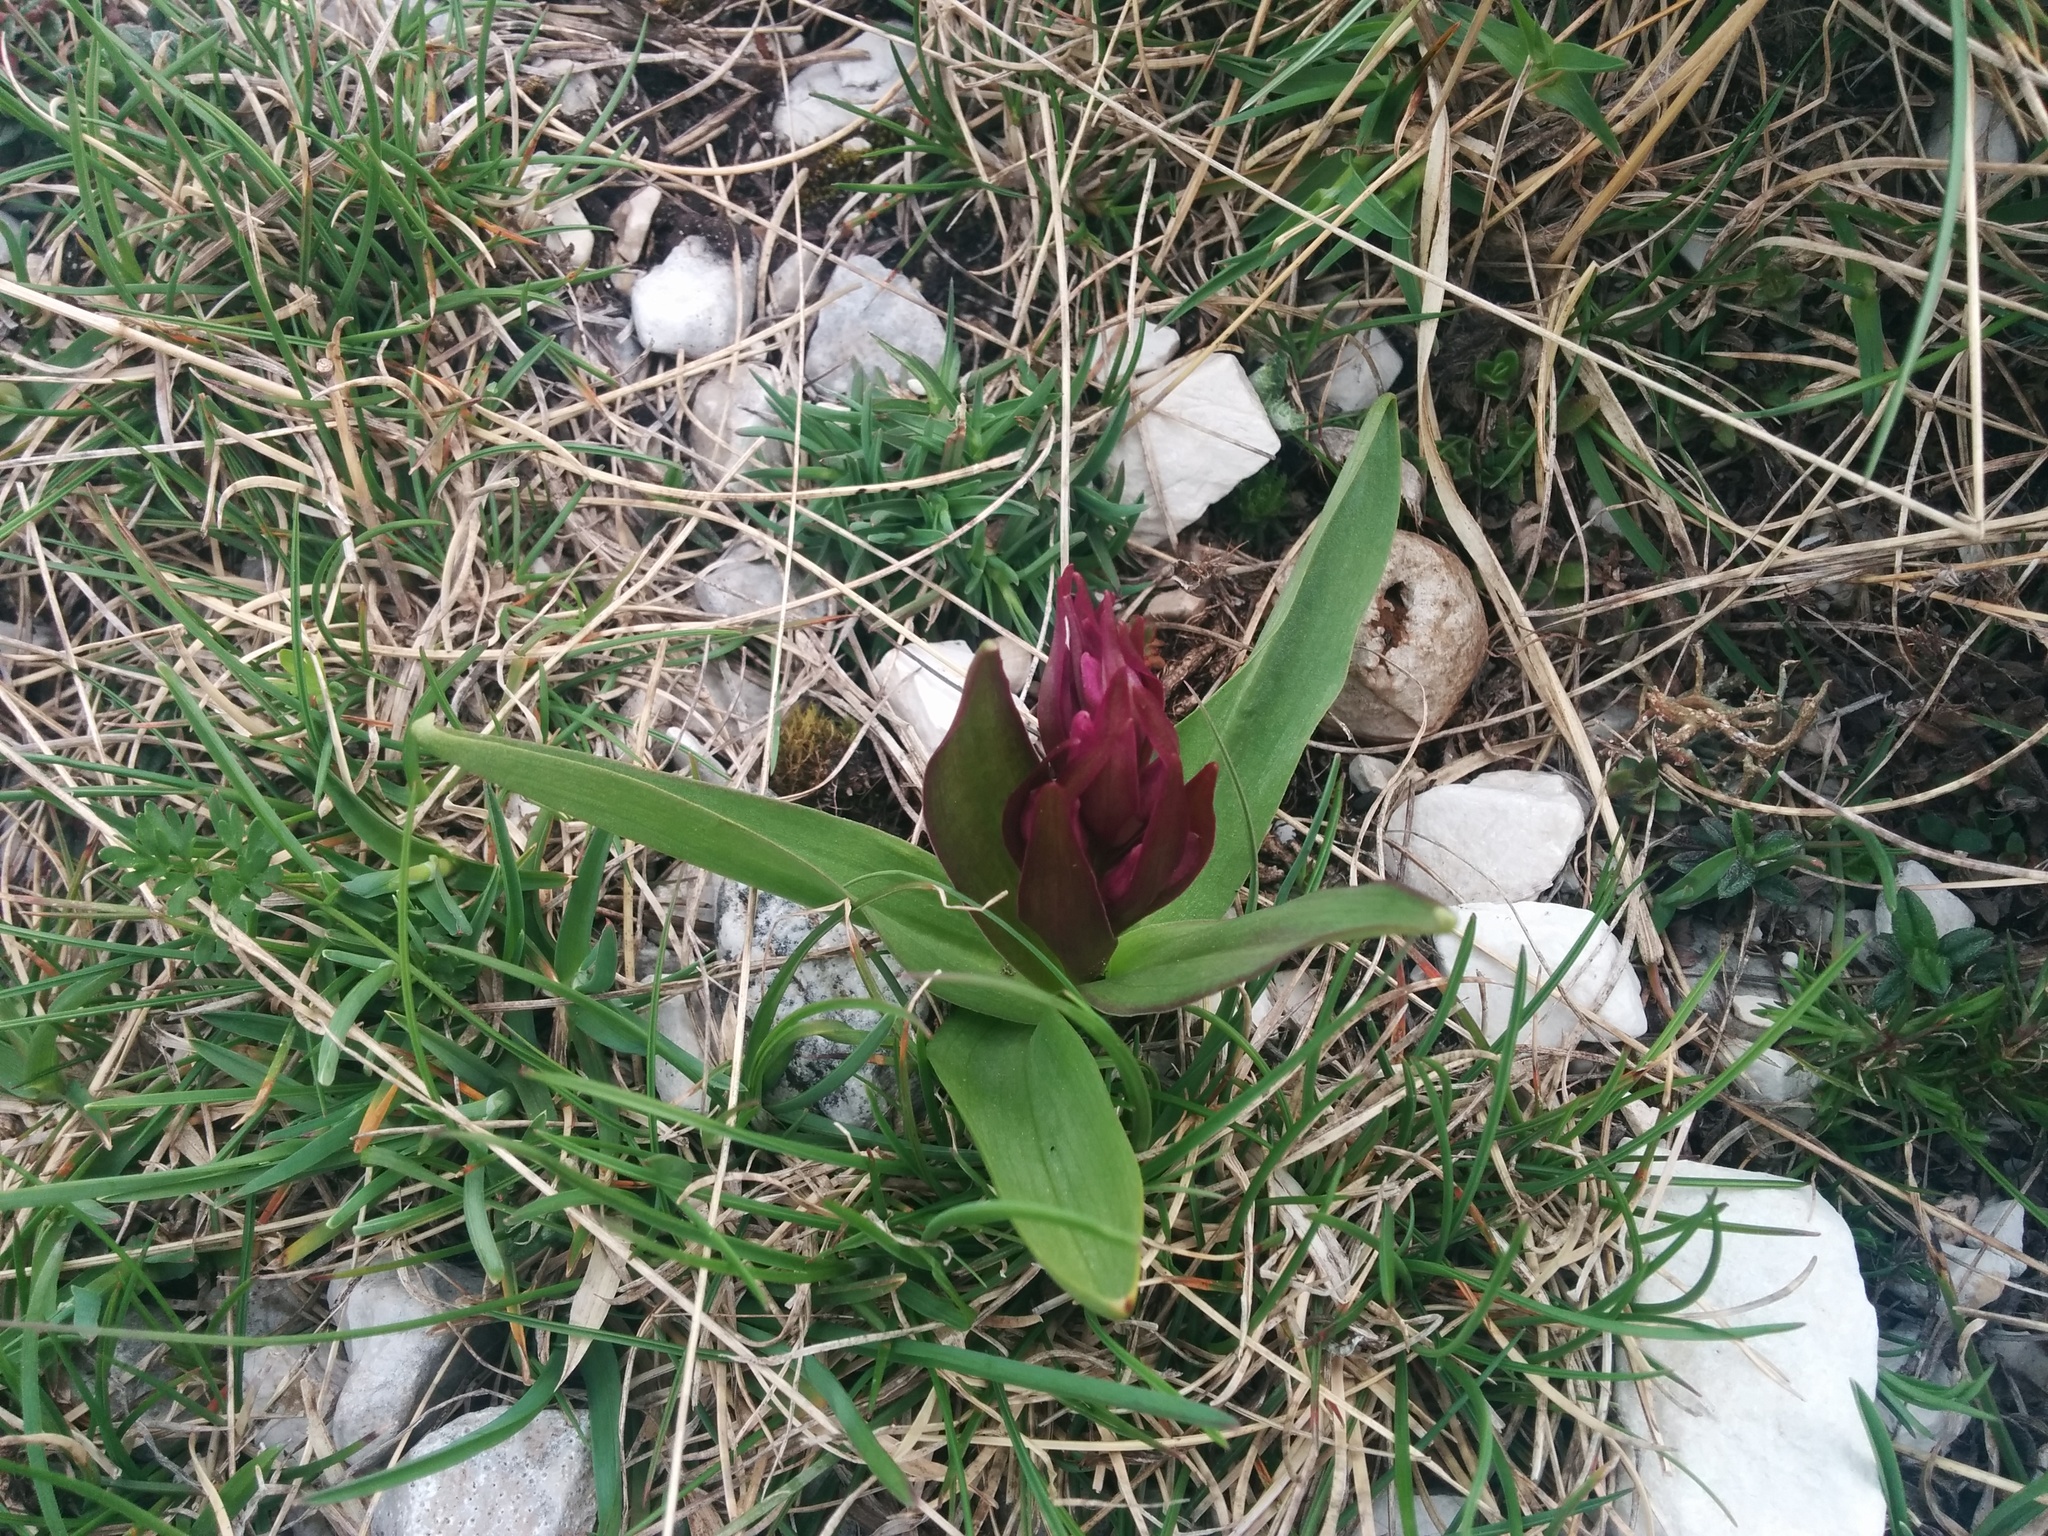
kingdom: Plantae
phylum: Tracheophyta
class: Liliopsida
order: Asparagales
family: Orchidaceae
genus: Dactylorhiza
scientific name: Dactylorhiza sambucina
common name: Elder-flowered orchid
